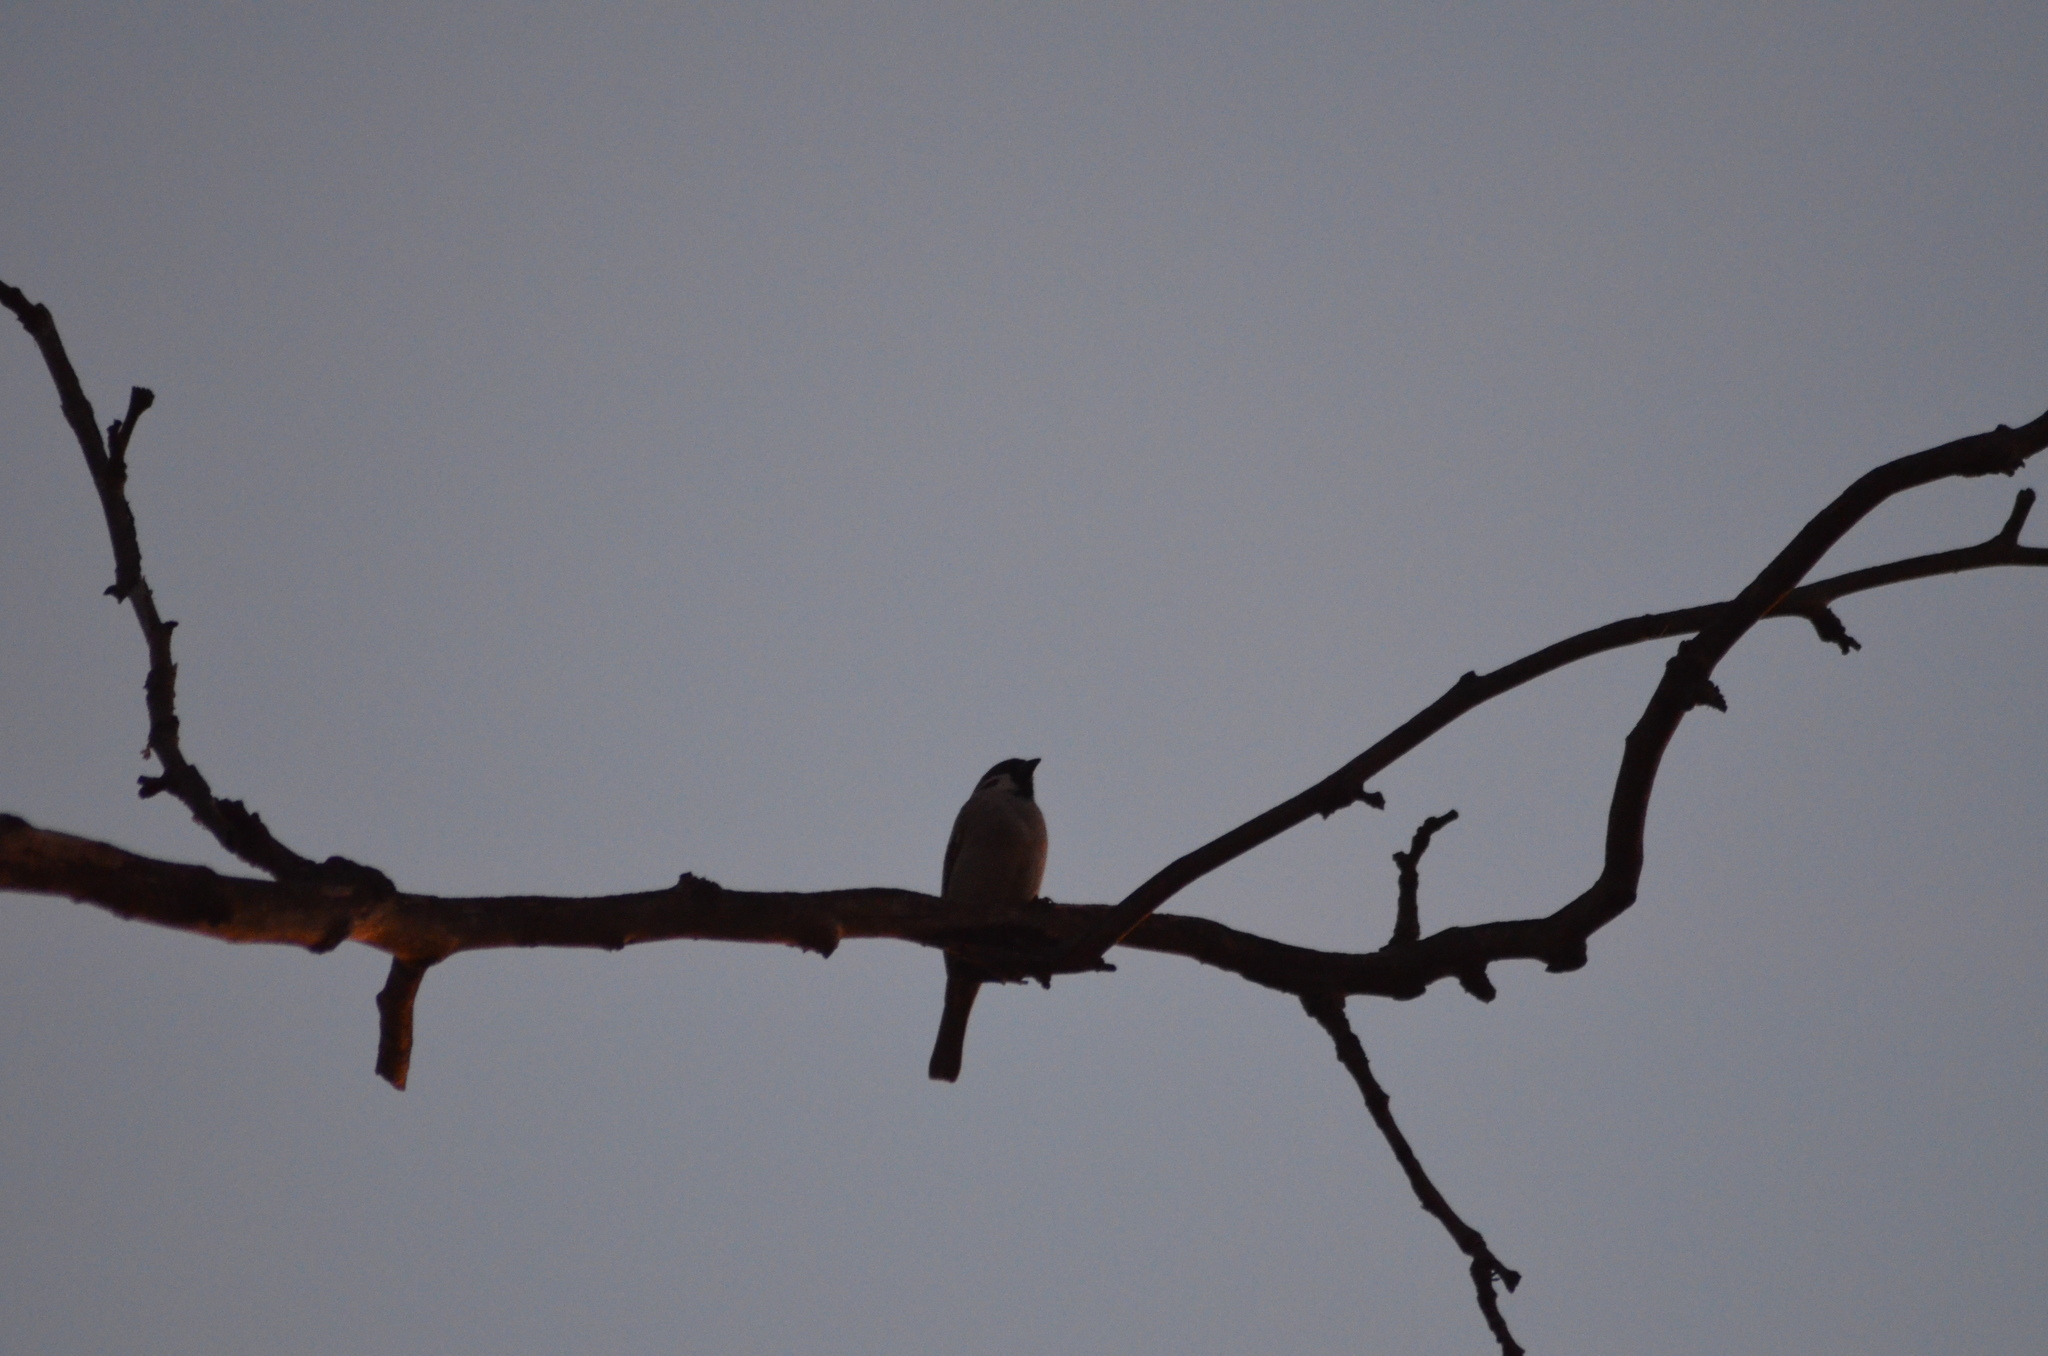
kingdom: Animalia
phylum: Chordata
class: Aves
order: Passeriformes
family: Passeridae
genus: Passer
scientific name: Passer montanus
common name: Eurasian tree sparrow
